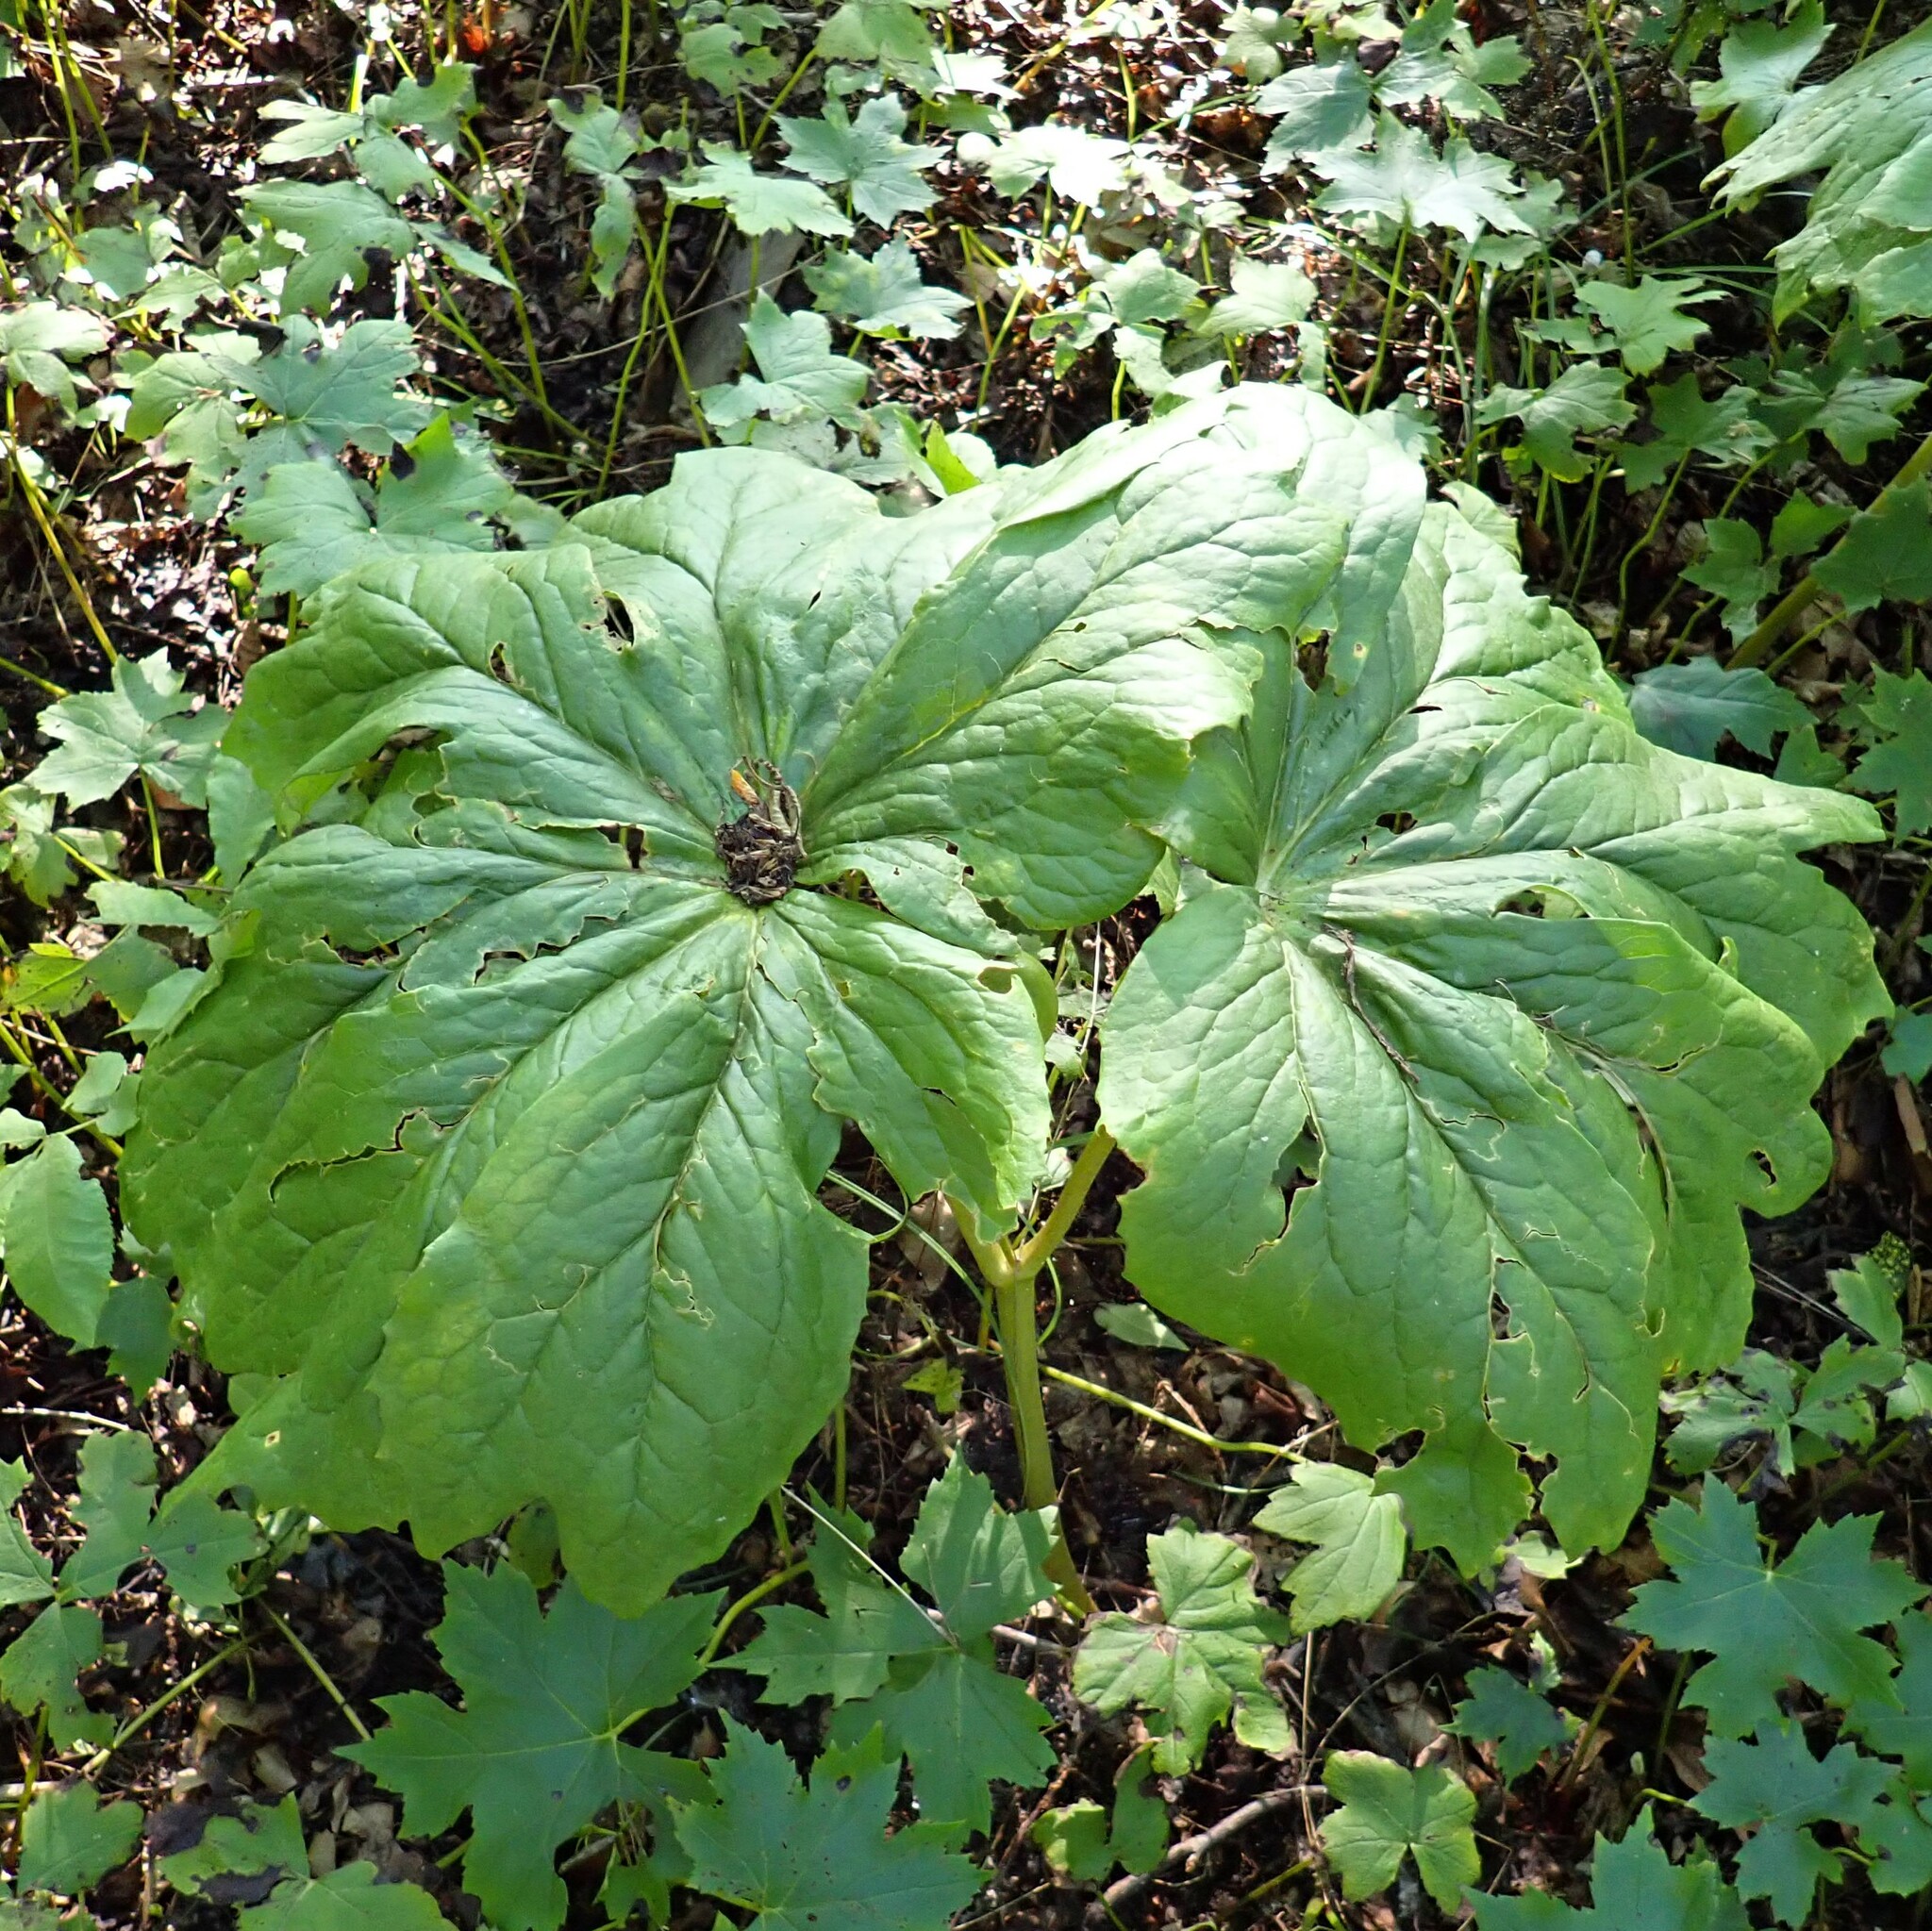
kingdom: Plantae
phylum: Tracheophyta
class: Magnoliopsida
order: Ranunculales
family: Berberidaceae
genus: Podophyllum
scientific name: Podophyllum peltatum
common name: Wild mandrake
